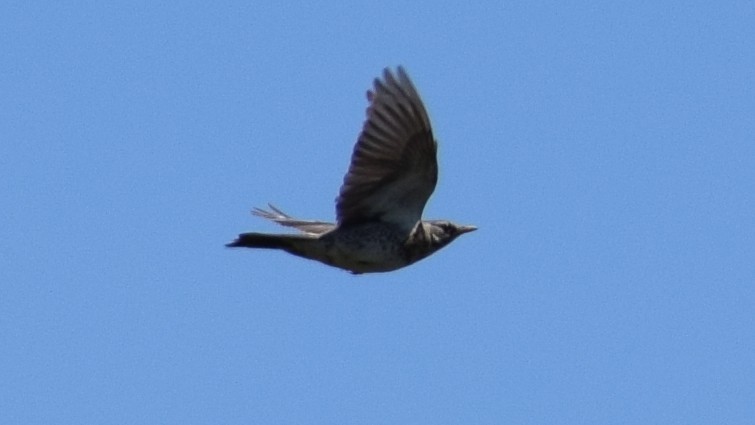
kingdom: Animalia
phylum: Chordata
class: Aves
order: Passeriformes
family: Turdidae
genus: Turdus
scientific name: Turdus pilaris
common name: Fieldfare
